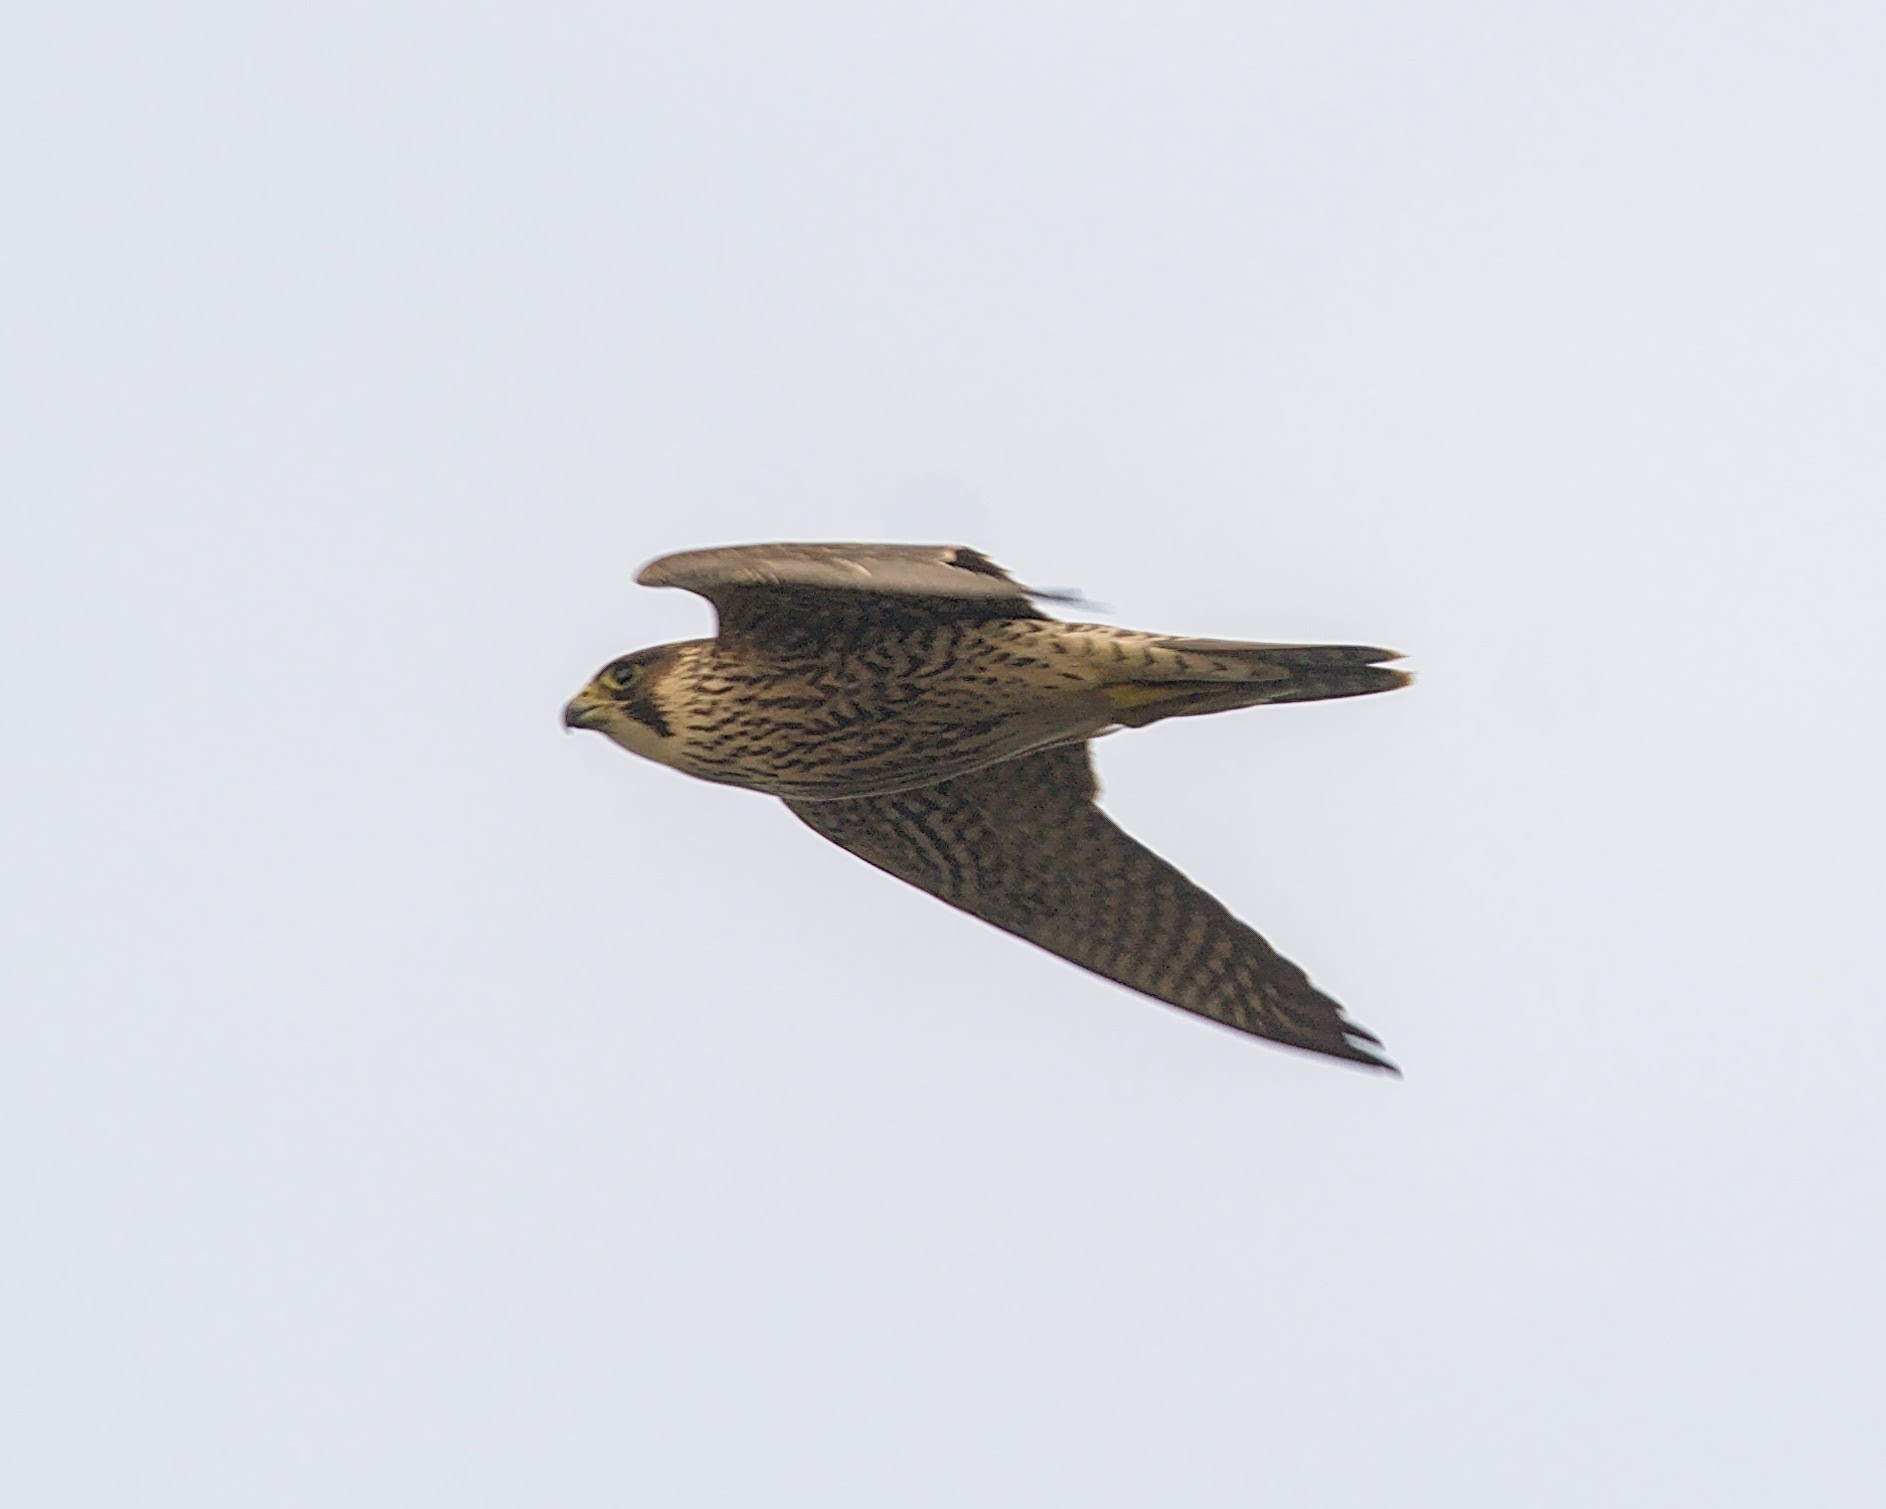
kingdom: Animalia
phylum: Chordata
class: Aves
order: Falconiformes
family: Falconidae
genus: Falco
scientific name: Falco peregrinus
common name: Peregrine falcon
